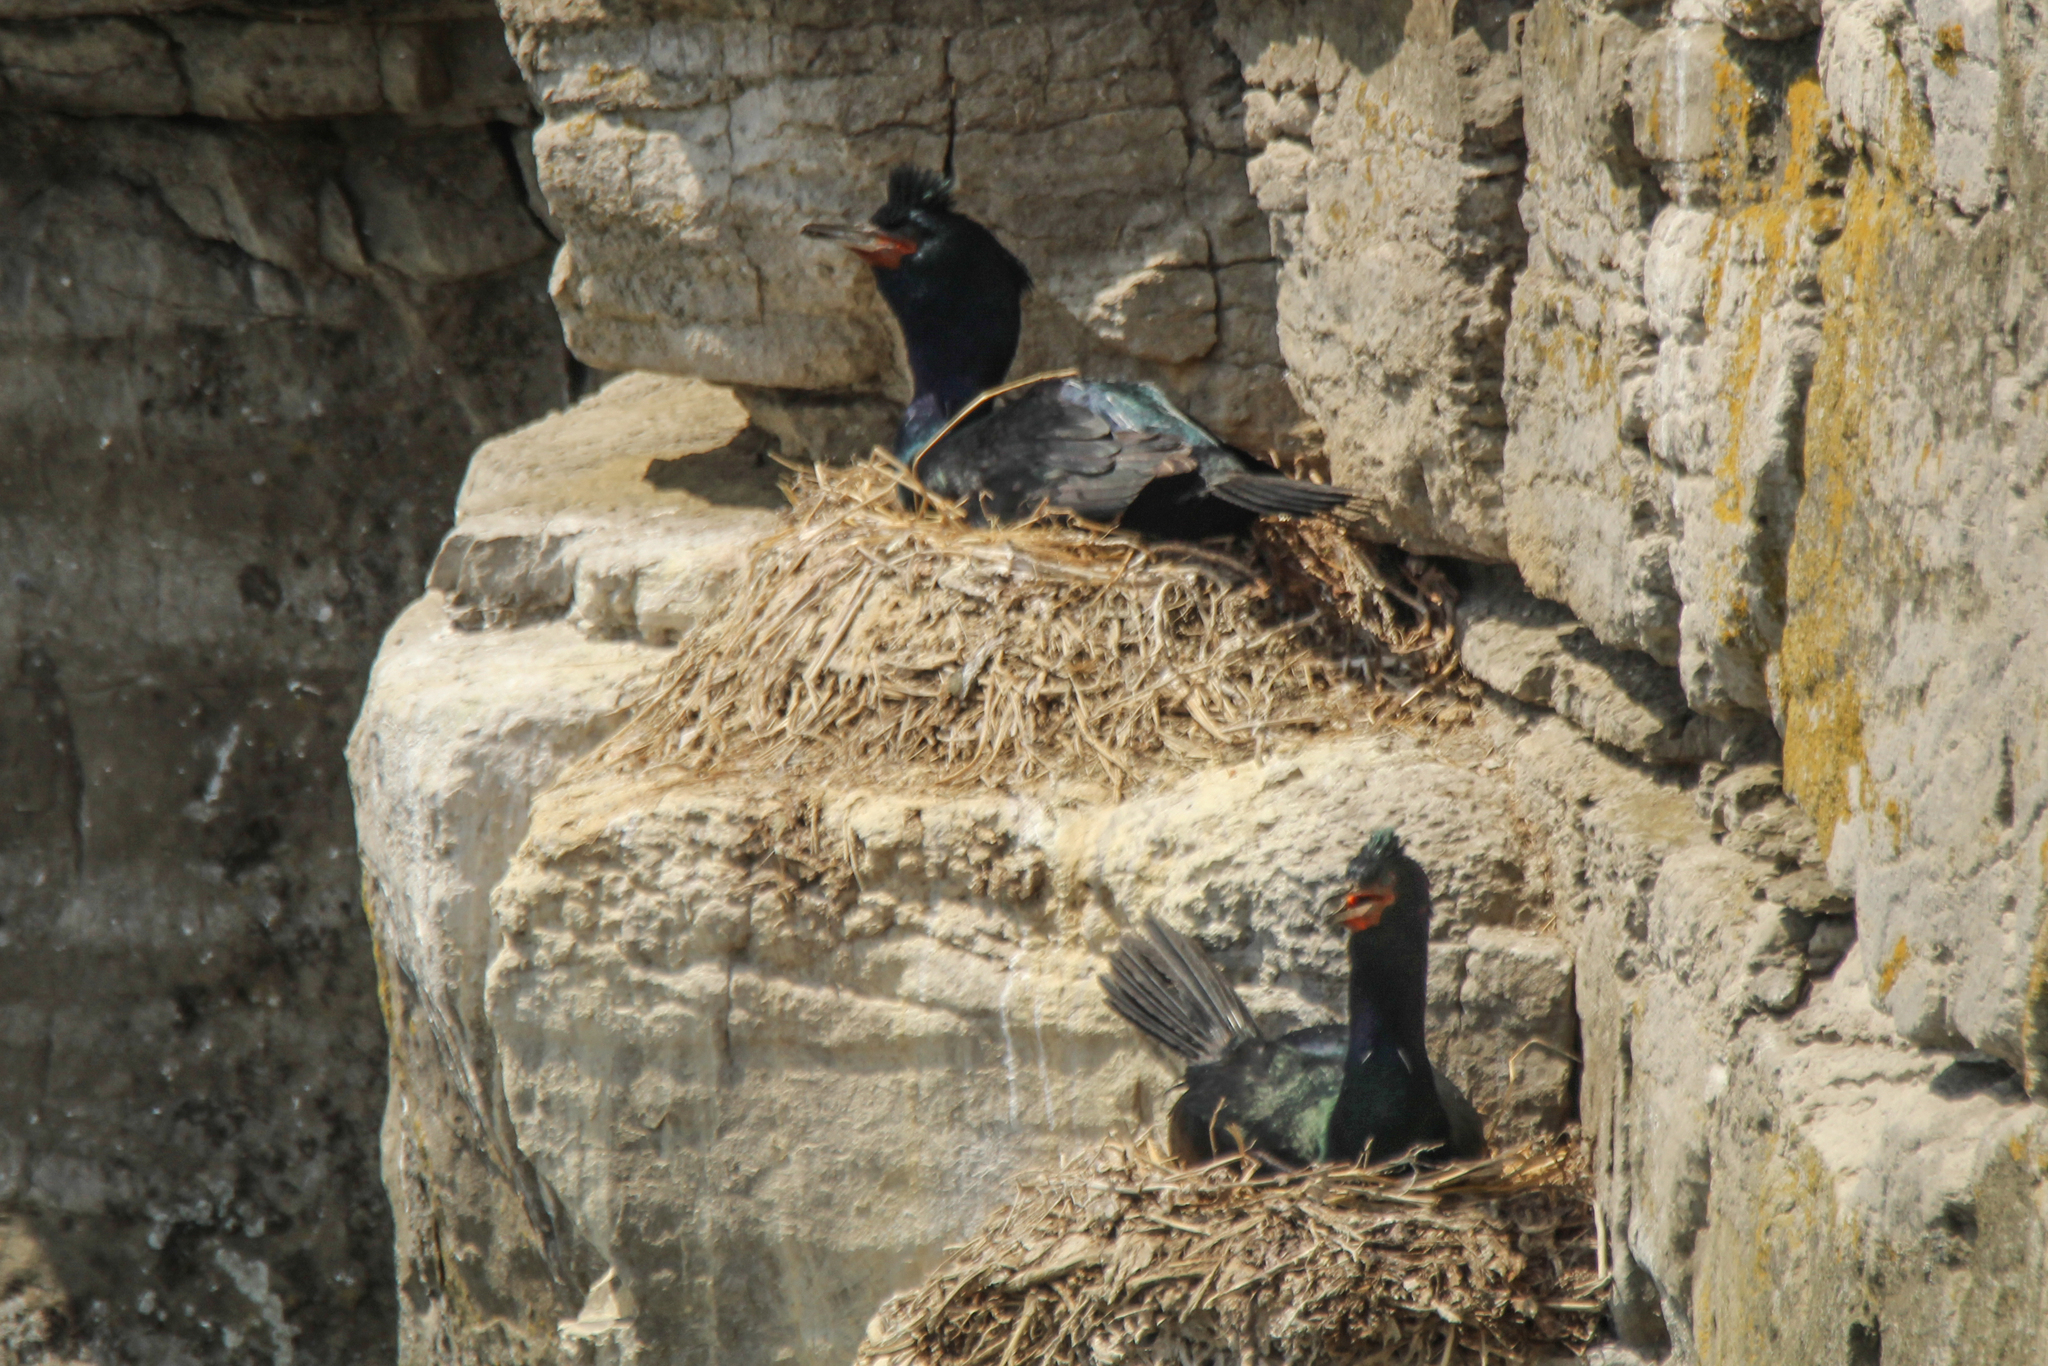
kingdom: Animalia
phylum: Chordata
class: Aves
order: Suliformes
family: Phalacrocoracidae
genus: Phalacrocorax
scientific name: Phalacrocorax pelagicus
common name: Pelagic cormorant
